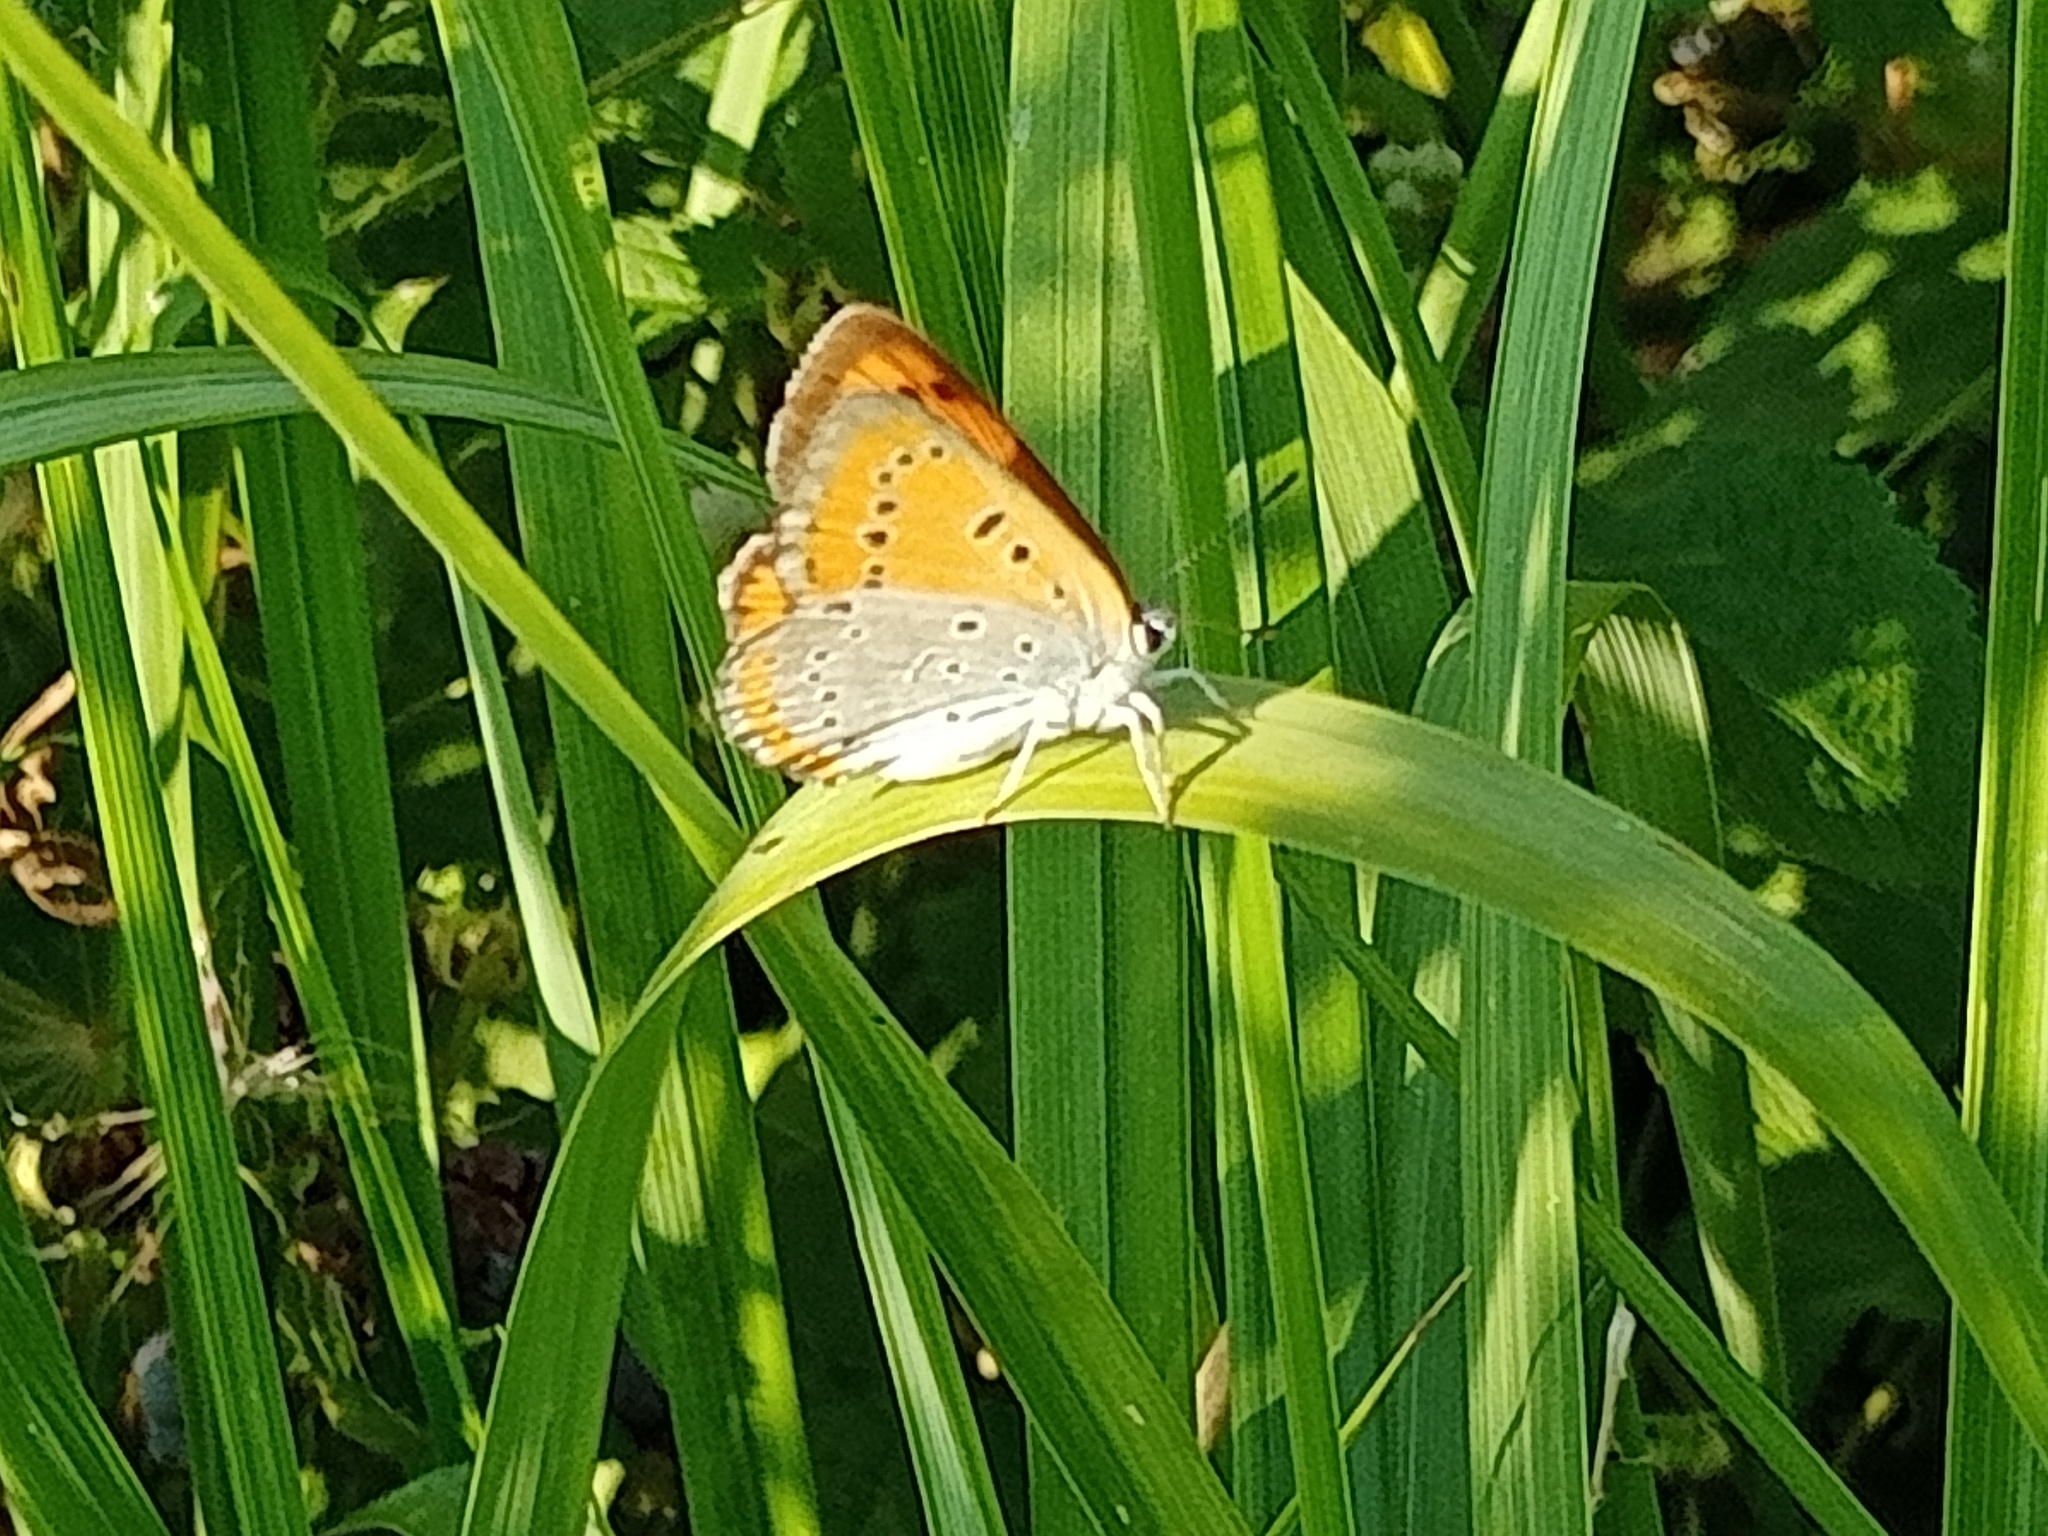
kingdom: Animalia
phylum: Arthropoda
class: Insecta
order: Lepidoptera
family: Lycaenidae
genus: Lycaena
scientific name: Lycaena dispar
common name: Large copper
